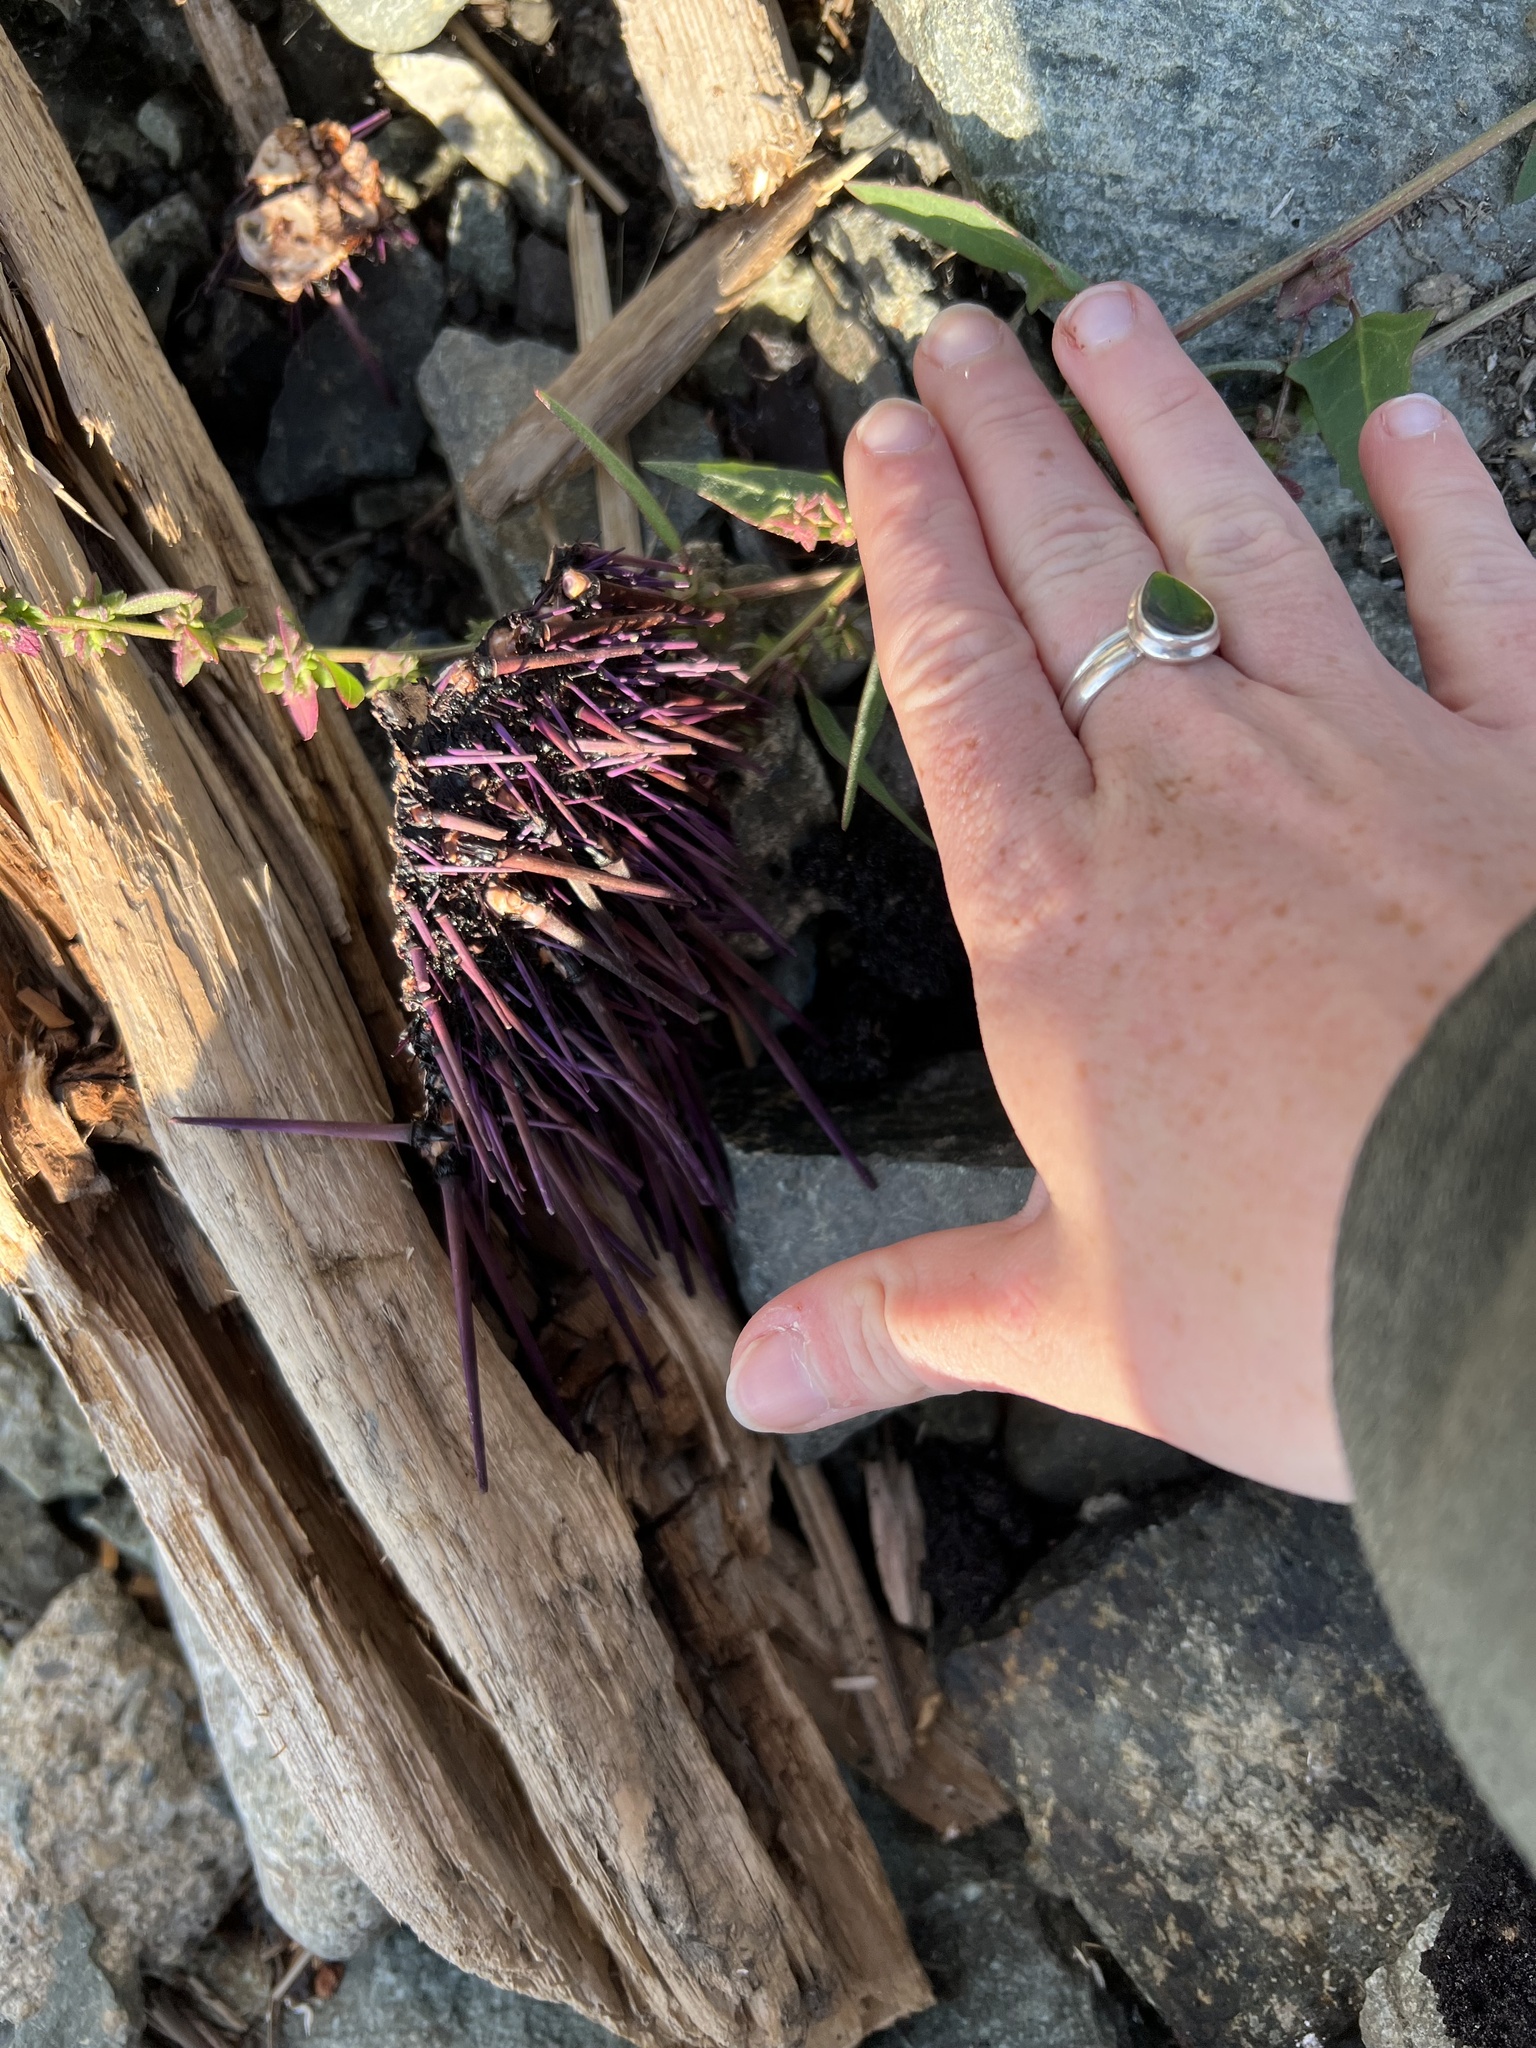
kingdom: Animalia
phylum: Echinodermata
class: Echinoidea
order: Camarodonta
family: Strongylocentrotidae
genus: Strongylocentrotus
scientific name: Strongylocentrotus purpuratus
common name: Purple sea urchin
